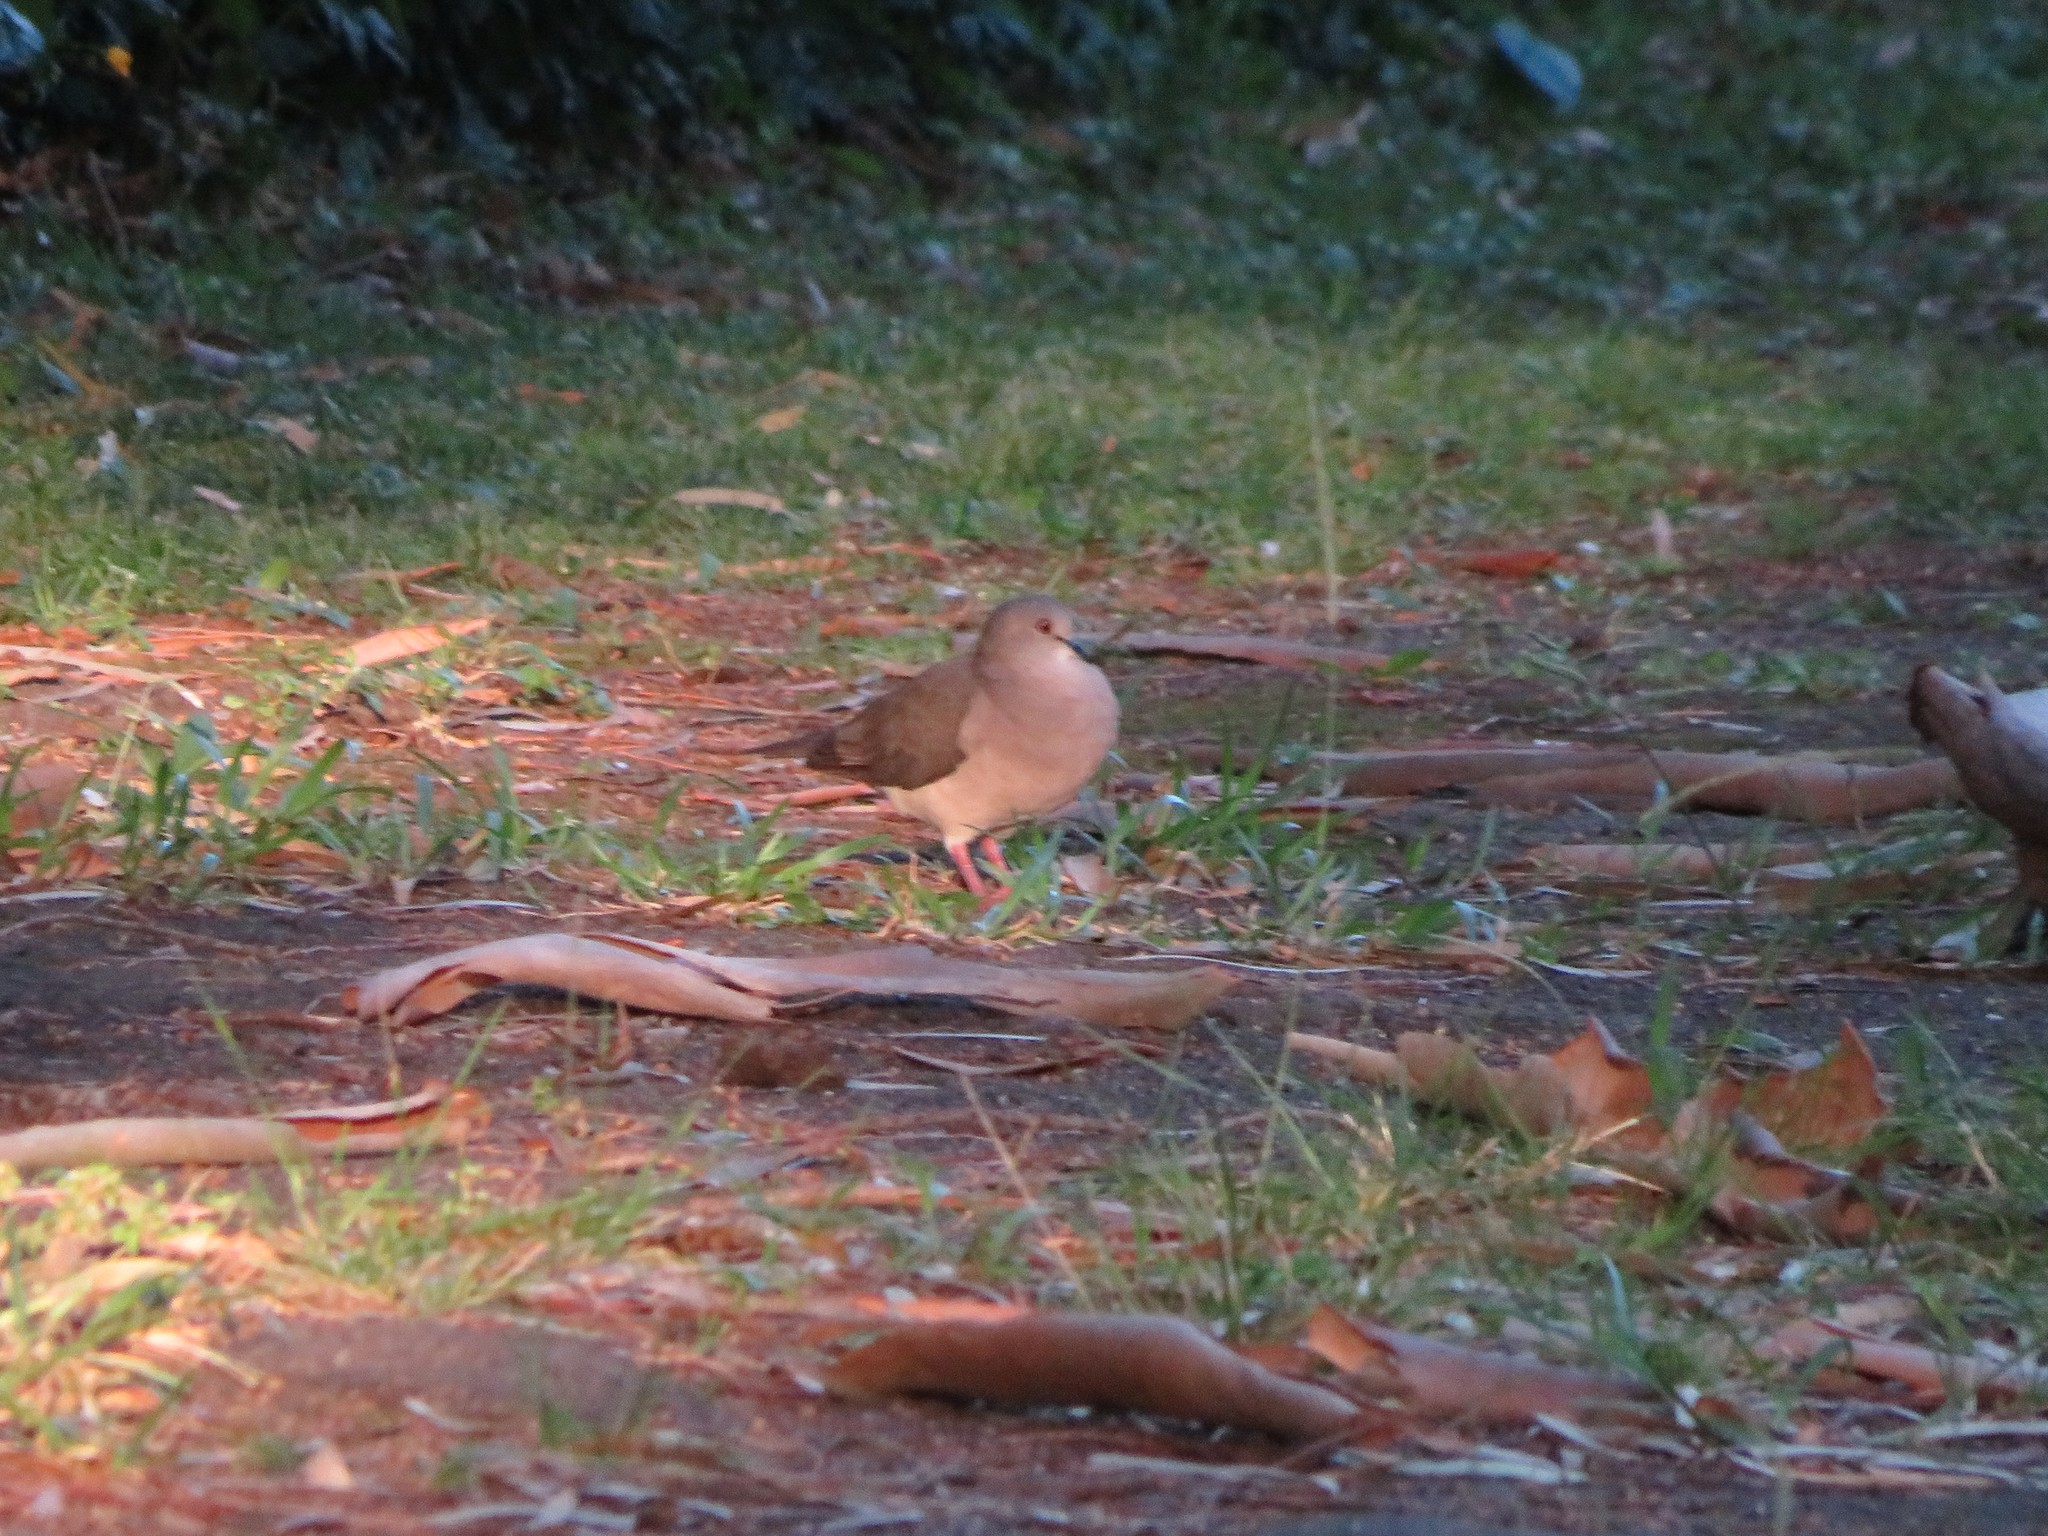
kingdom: Animalia
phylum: Chordata
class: Aves
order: Columbiformes
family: Columbidae
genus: Leptotila
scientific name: Leptotila verreauxi
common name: White-tipped dove
